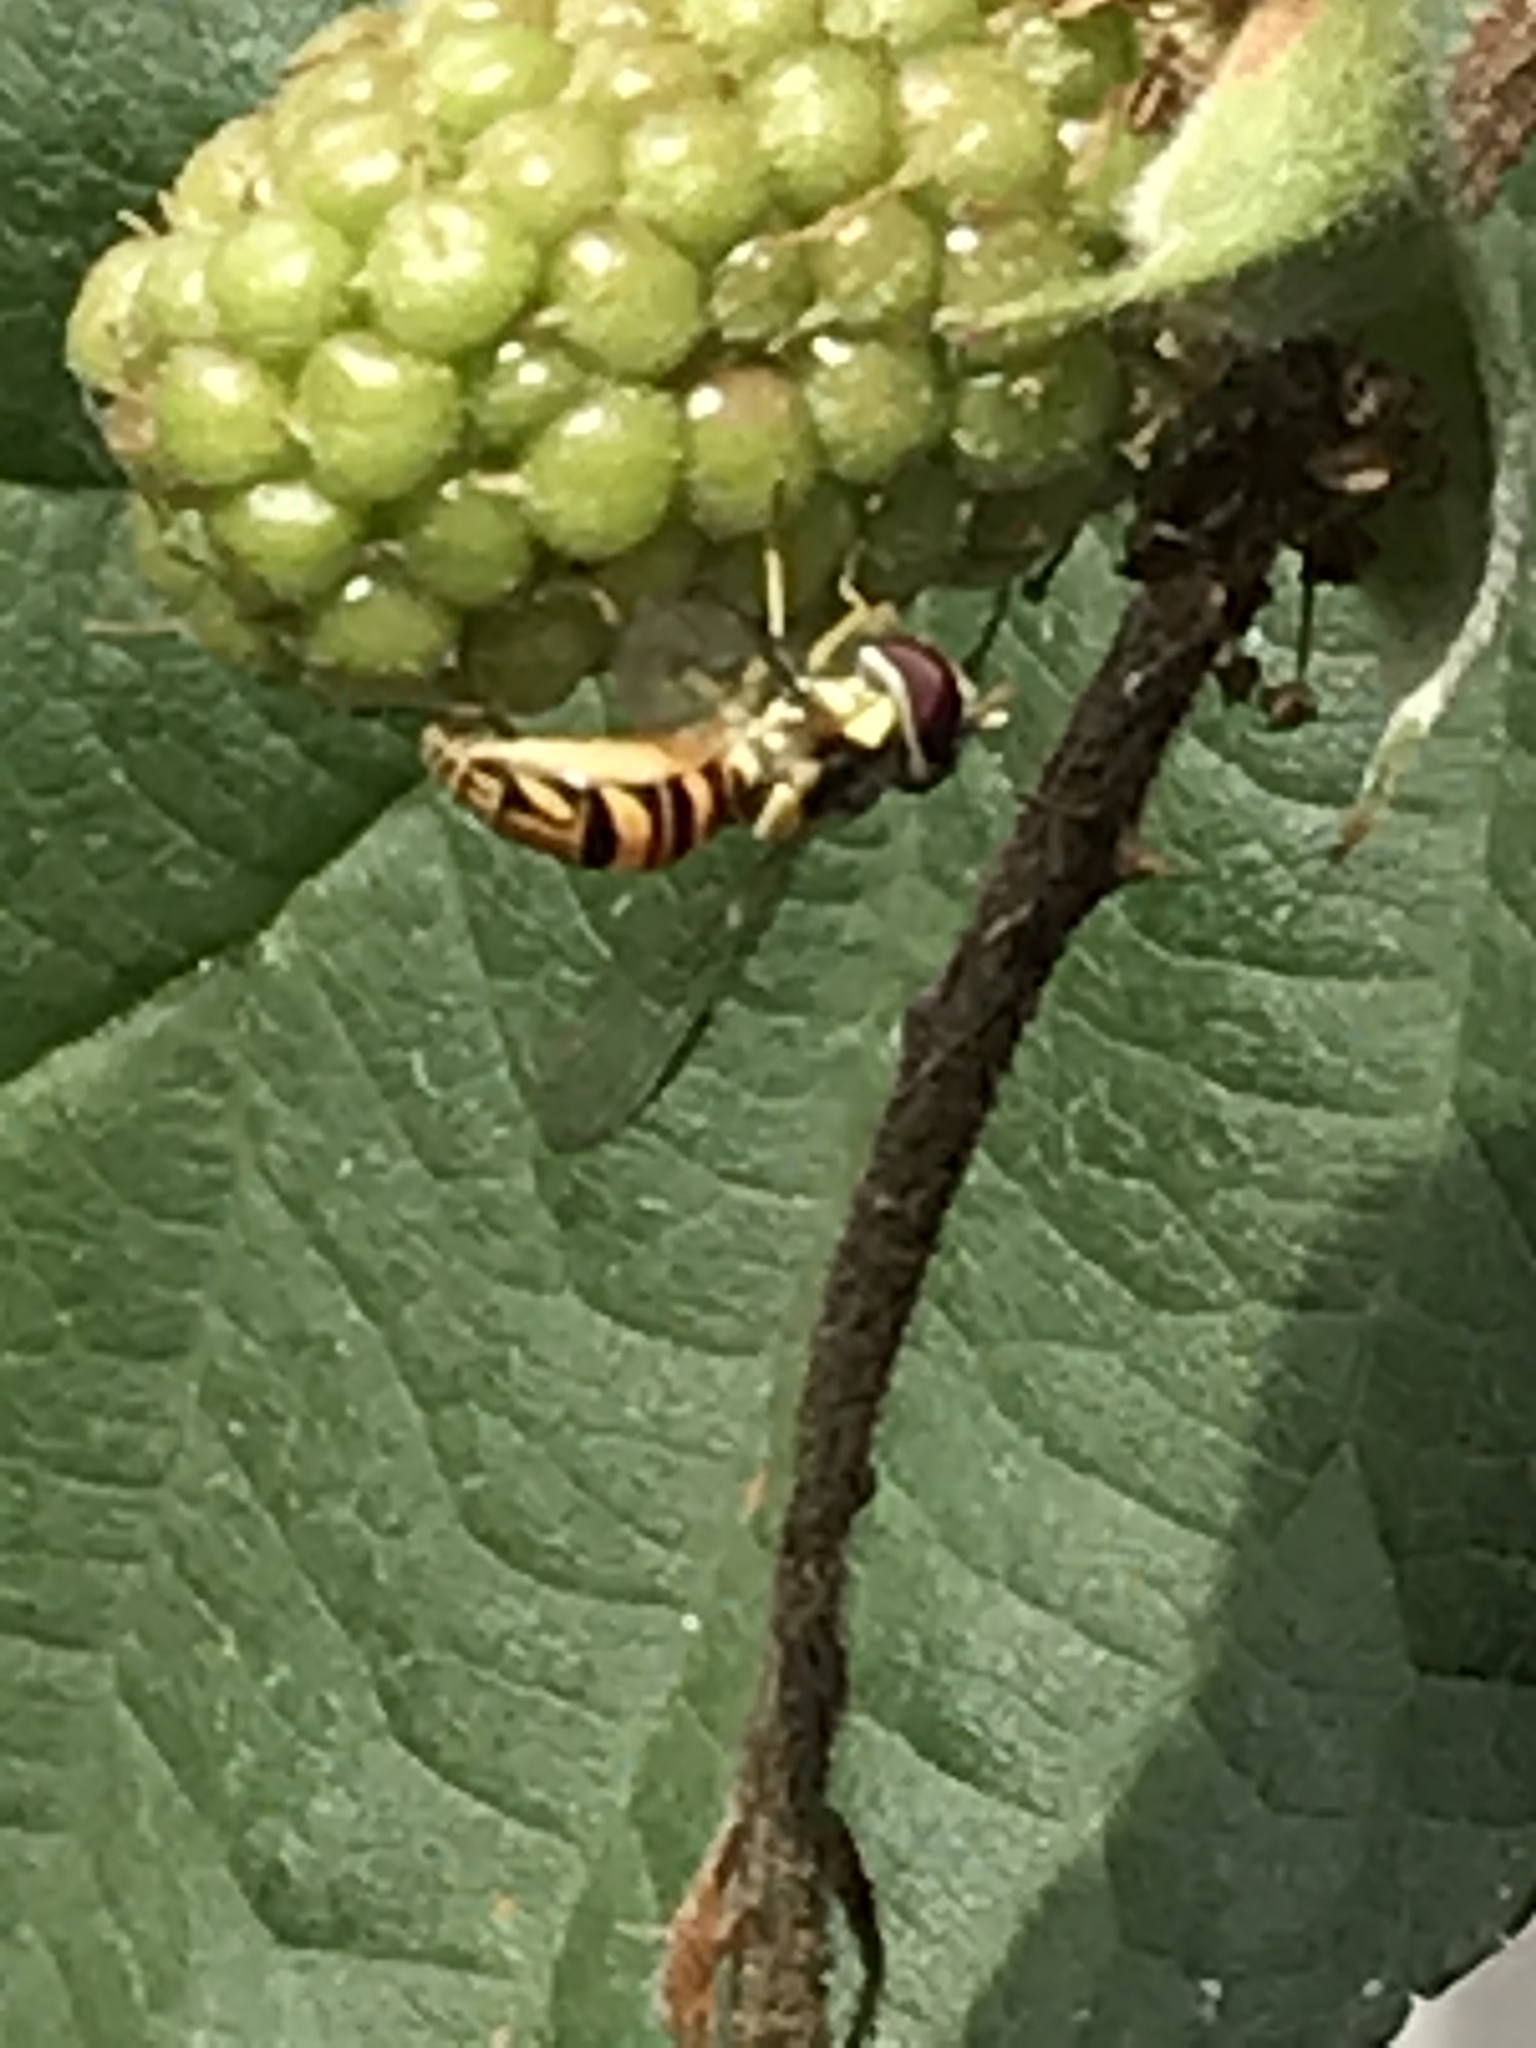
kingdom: Animalia
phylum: Arthropoda
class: Insecta
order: Diptera
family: Syrphidae
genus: Allograpta
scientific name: Allograpta obliqua
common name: Common oblique syrphid
